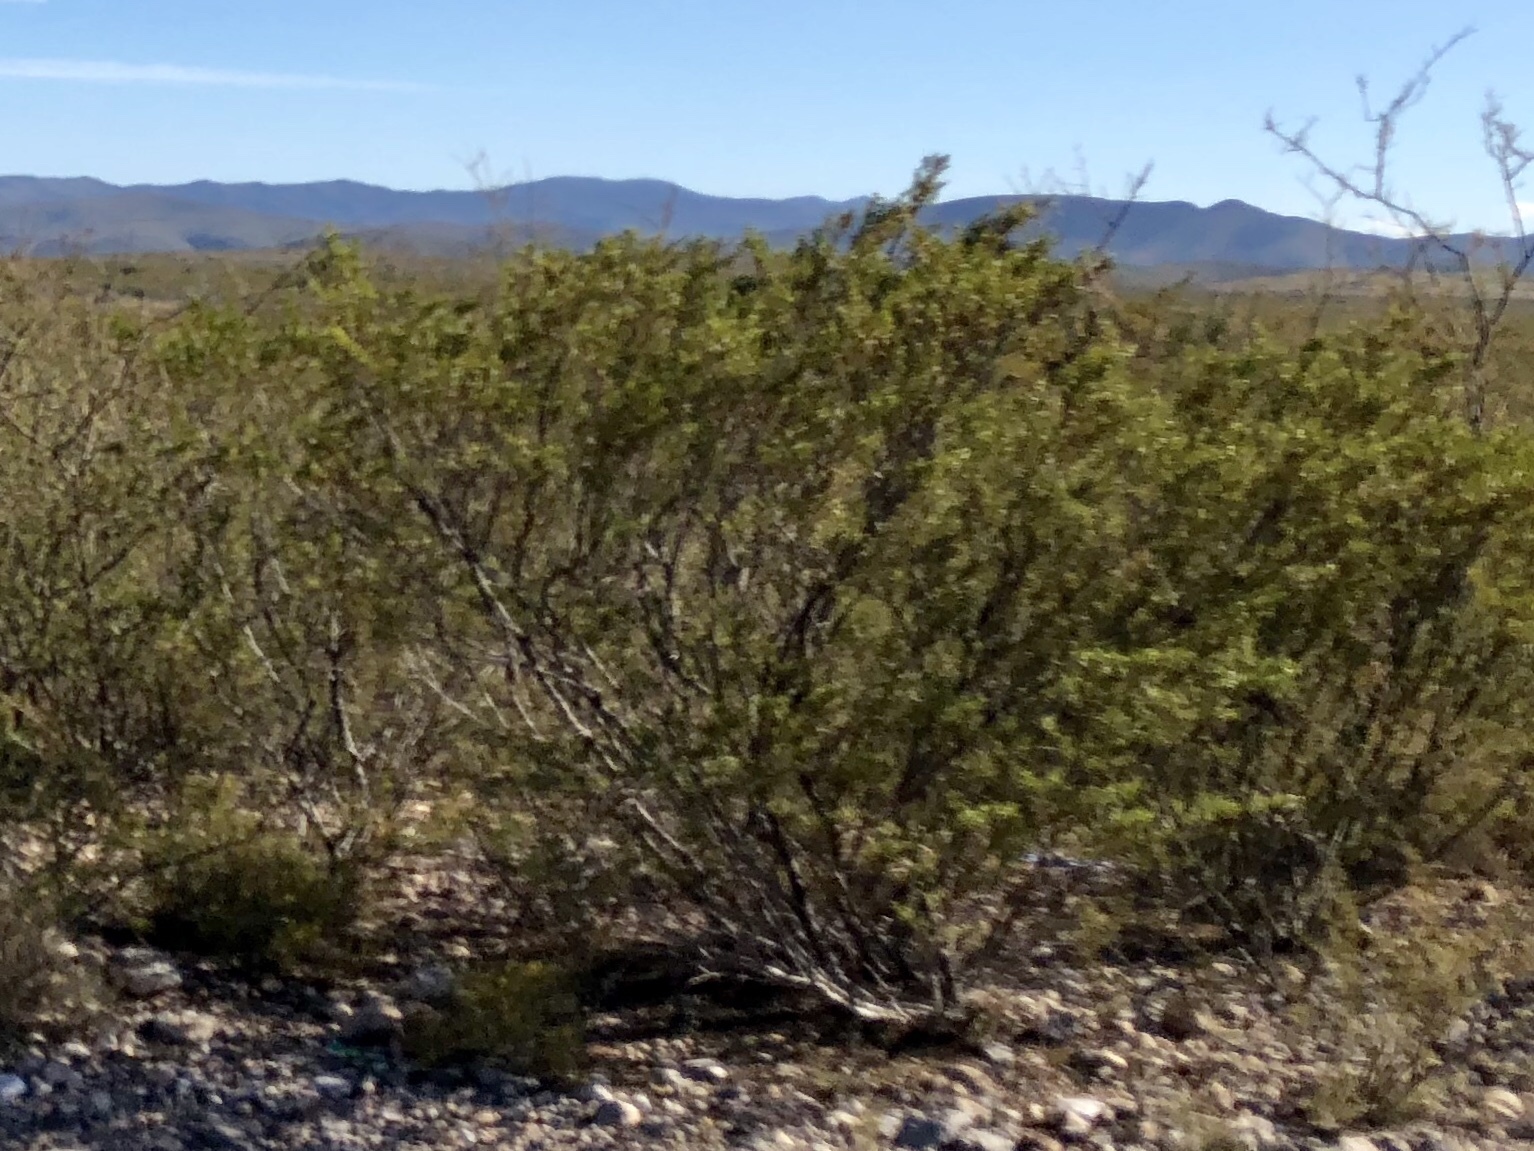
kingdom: Plantae
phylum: Tracheophyta
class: Magnoliopsida
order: Zygophyllales
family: Zygophyllaceae
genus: Larrea
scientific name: Larrea tridentata
